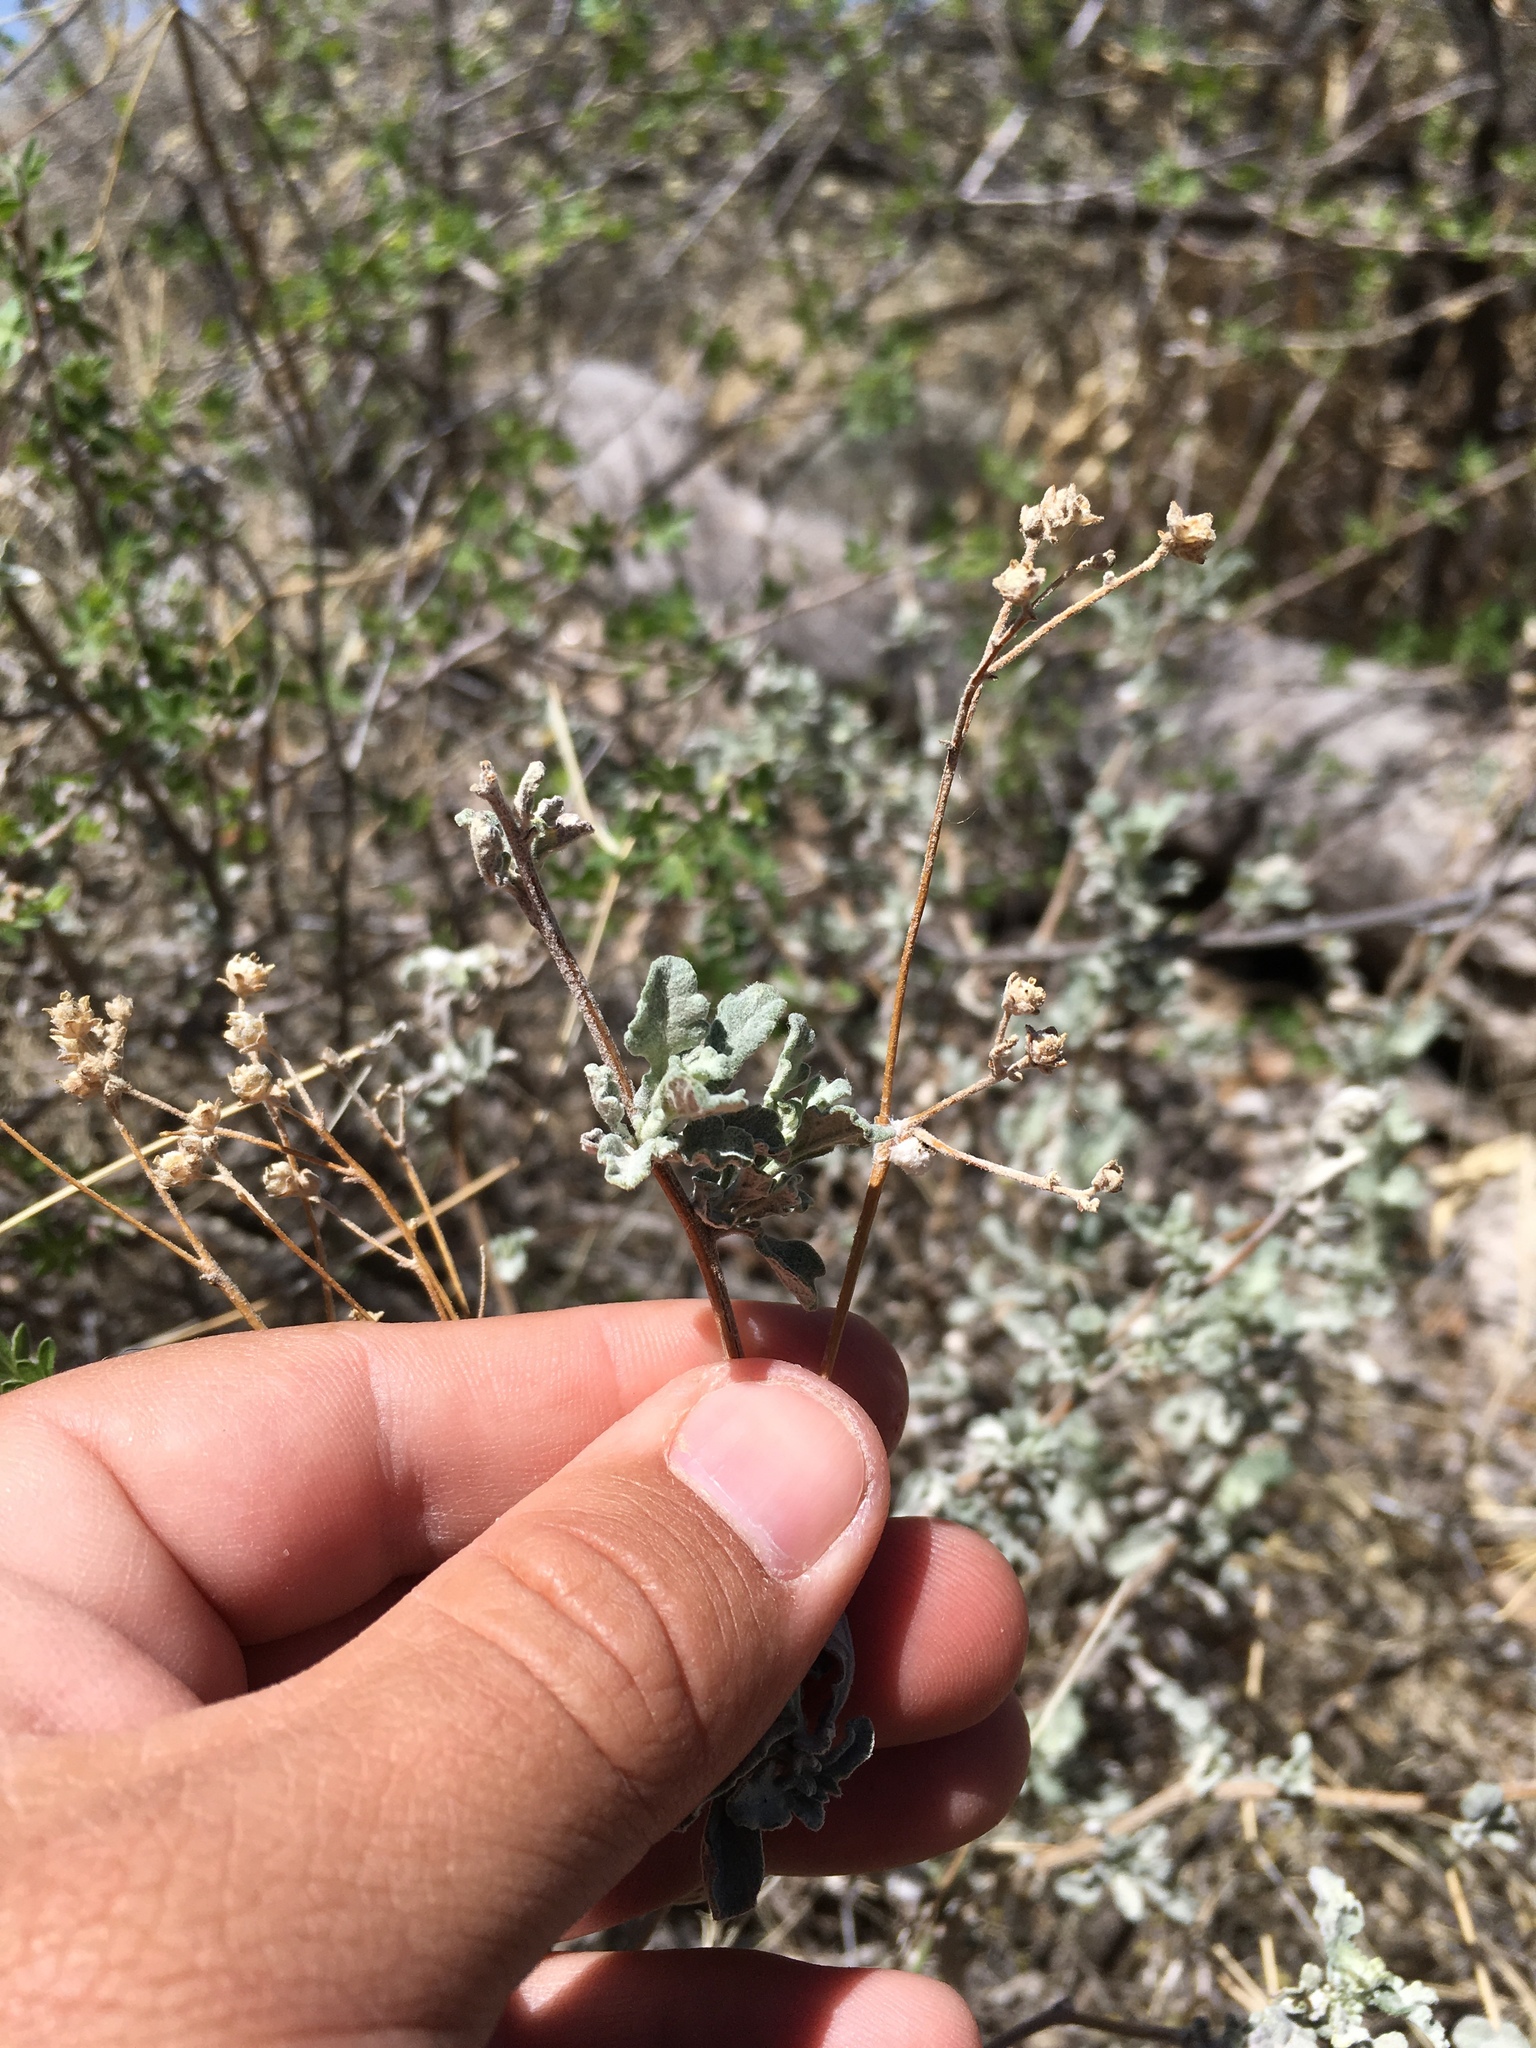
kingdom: Plantae
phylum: Tracheophyta
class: Magnoliopsida
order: Asterales
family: Asteraceae
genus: Parthenium
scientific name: Parthenium incanum
